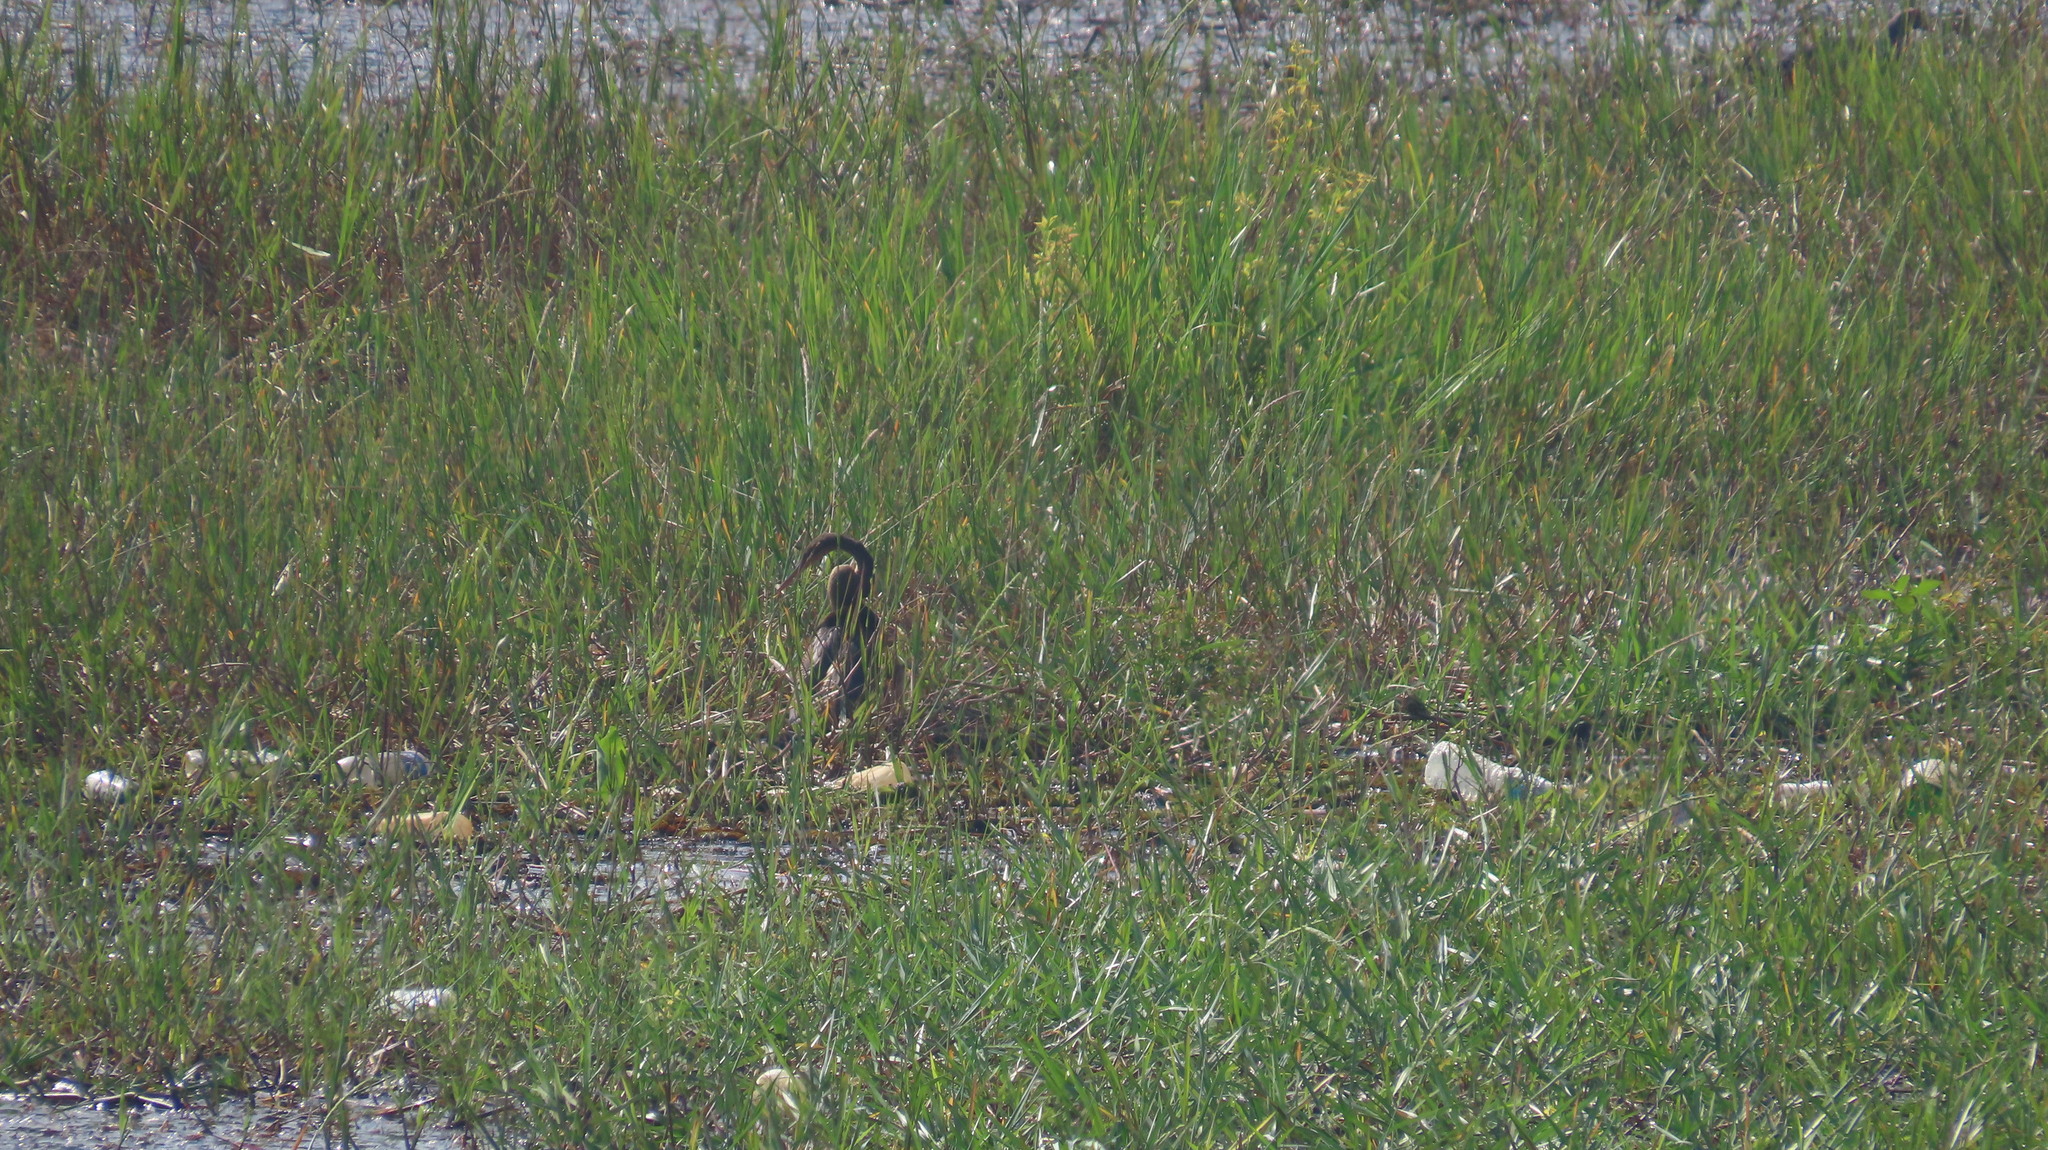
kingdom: Animalia
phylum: Chordata
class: Aves
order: Suliformes
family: Anhingidae
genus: Anhinga
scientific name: Anhinga melanogaster
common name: Oriental darter
